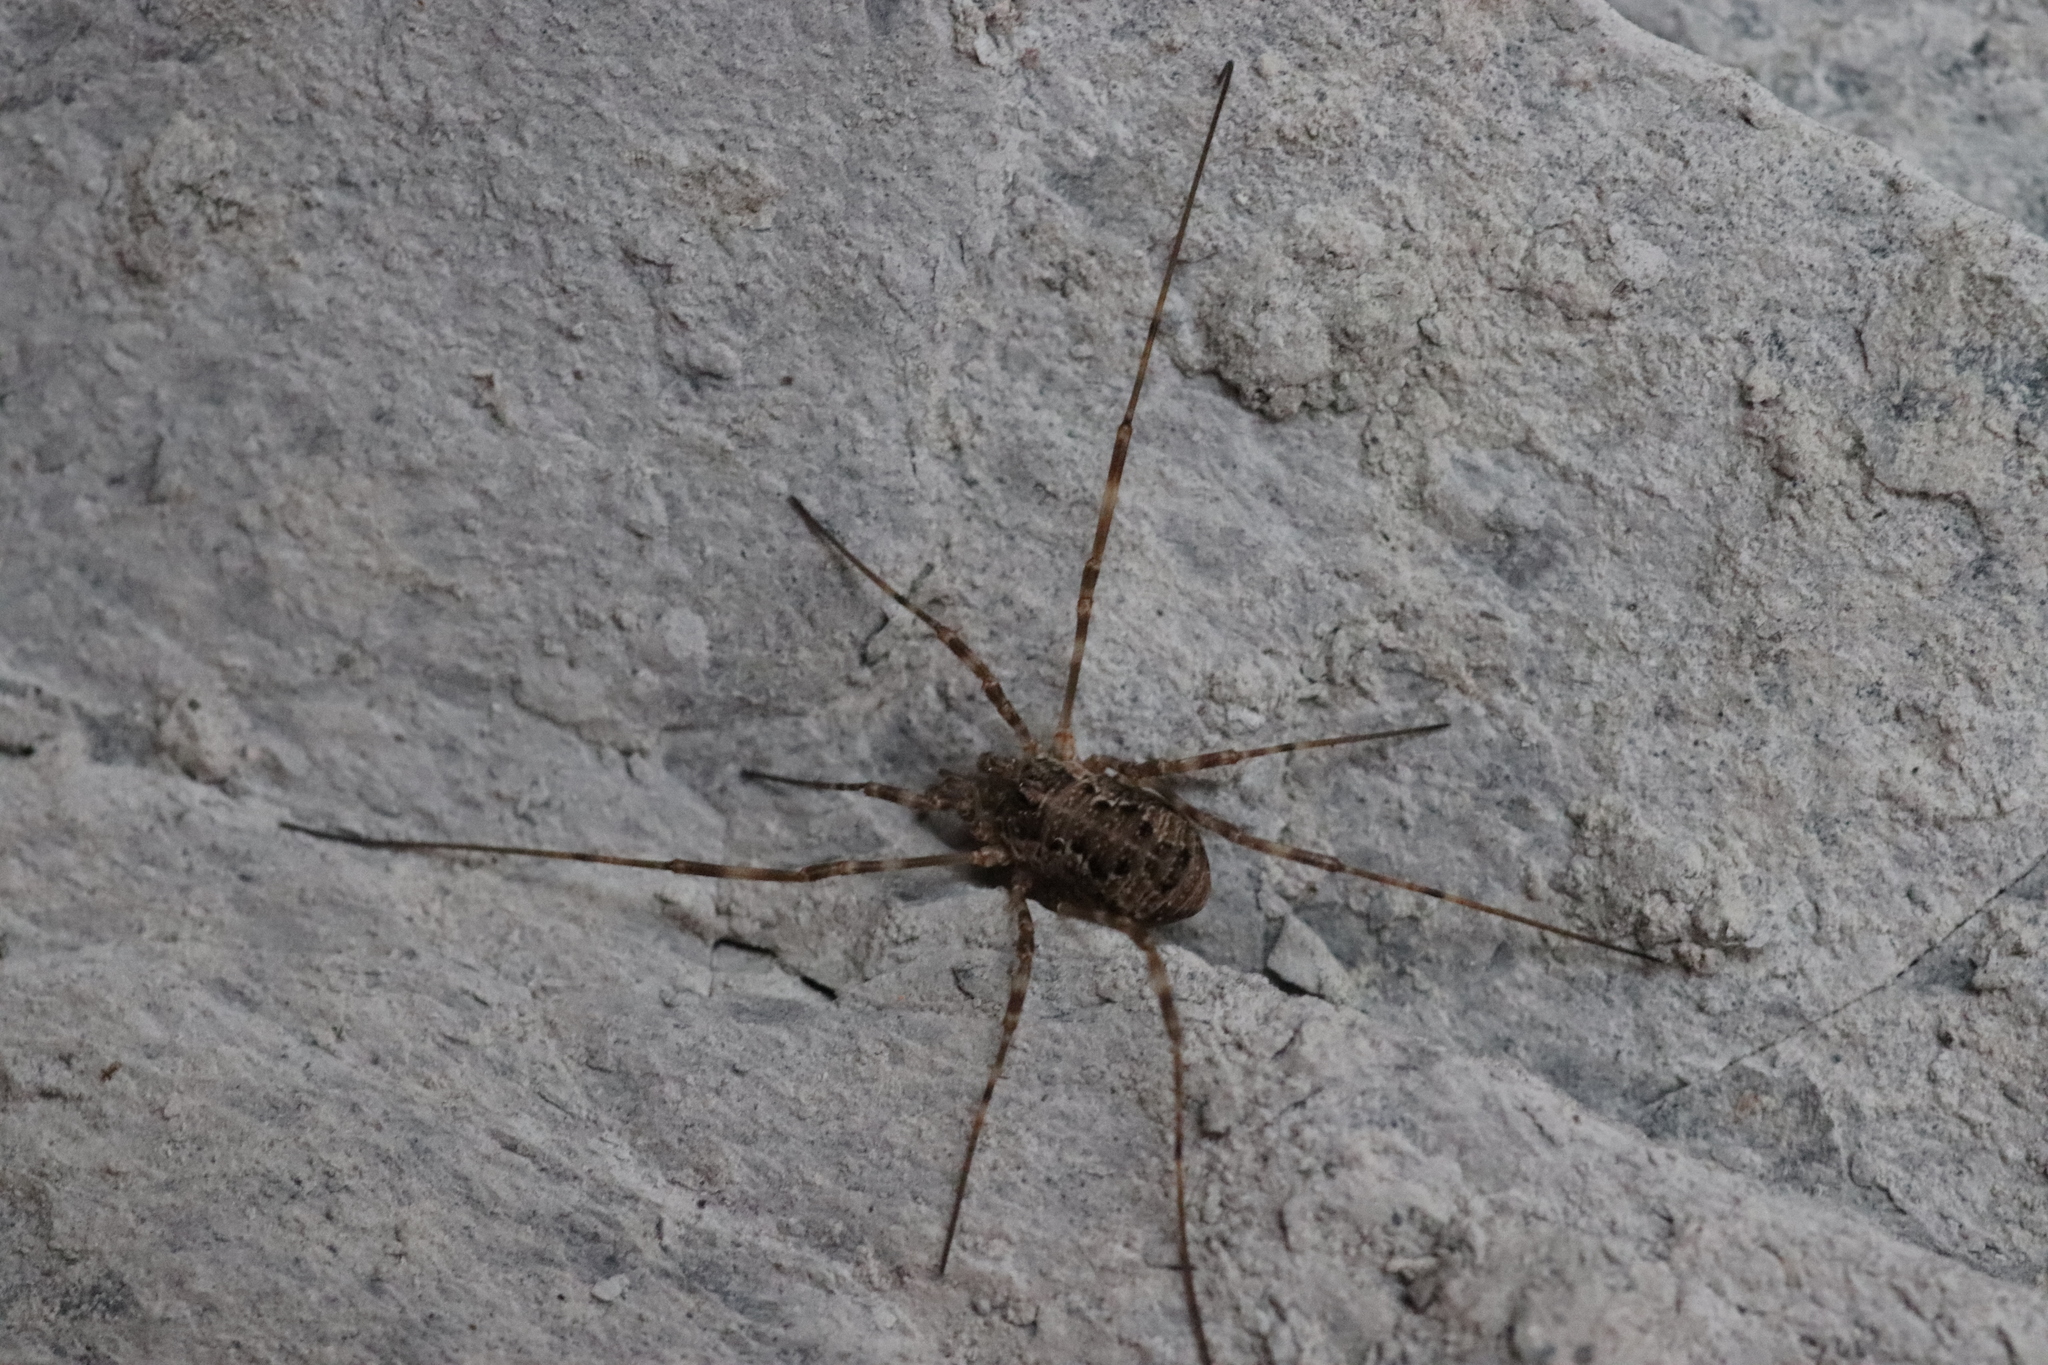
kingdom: Animalia
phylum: Arthropoda
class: Arachnida
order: Opiliones
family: Phalangiidae
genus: Dasylobus
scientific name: Dasylobus graniferus
